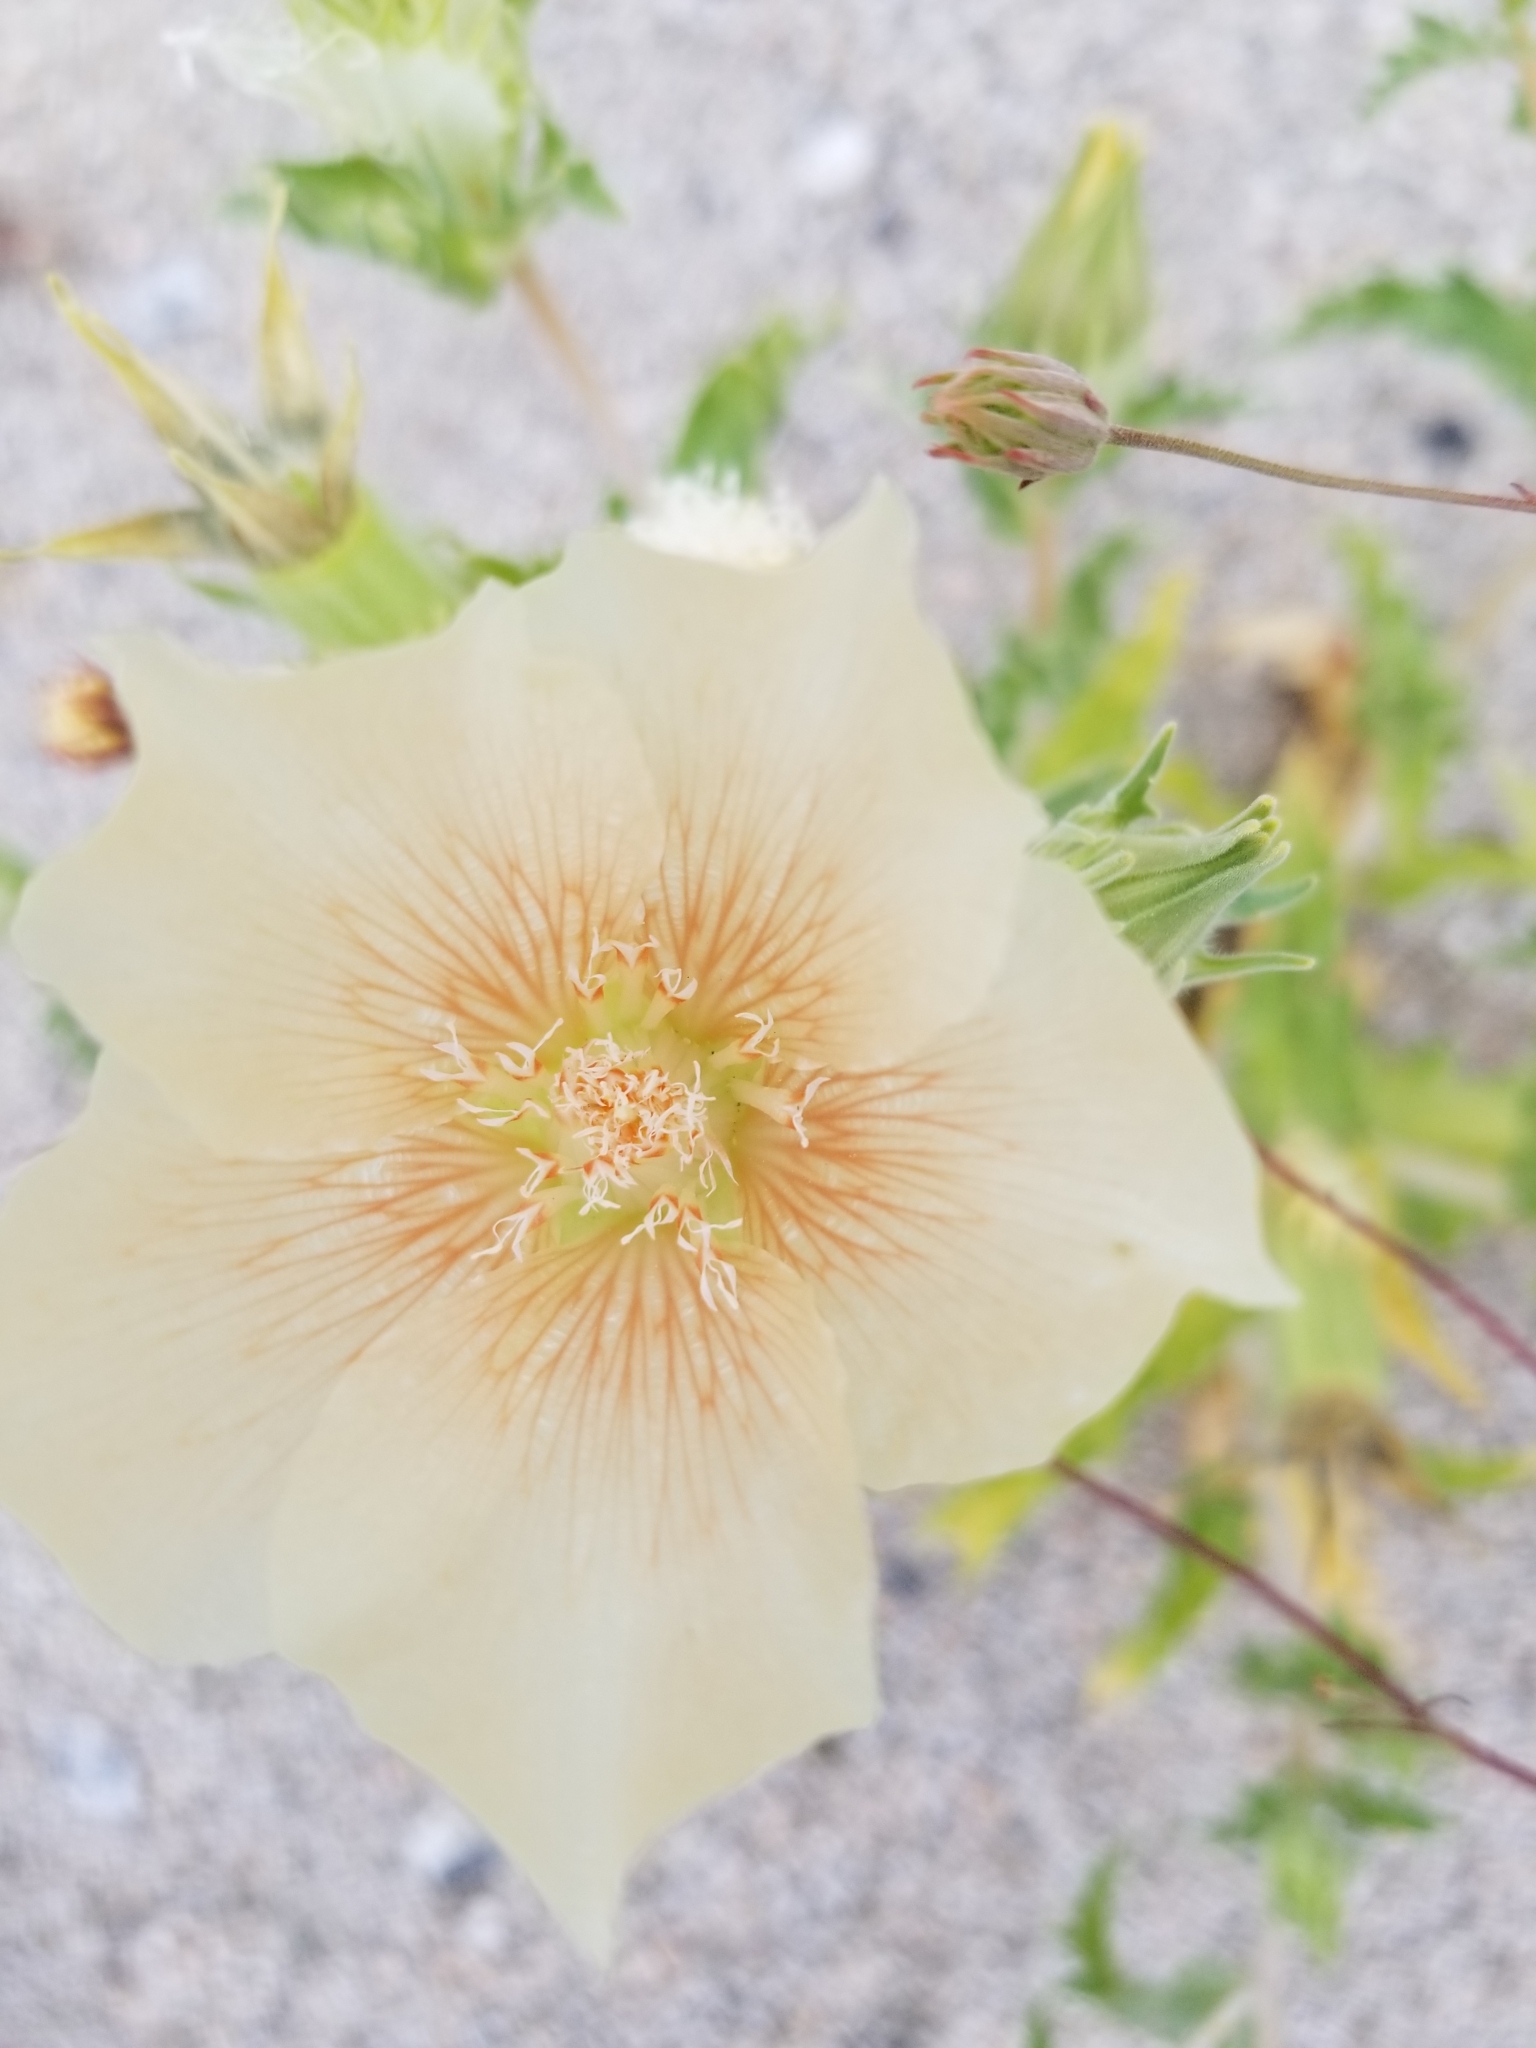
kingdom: Plantae
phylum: Tracheophyta
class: Magnoliopsida
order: Cornales
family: Loasaceae
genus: Mentzelia
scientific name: Mentzelia involucrata
